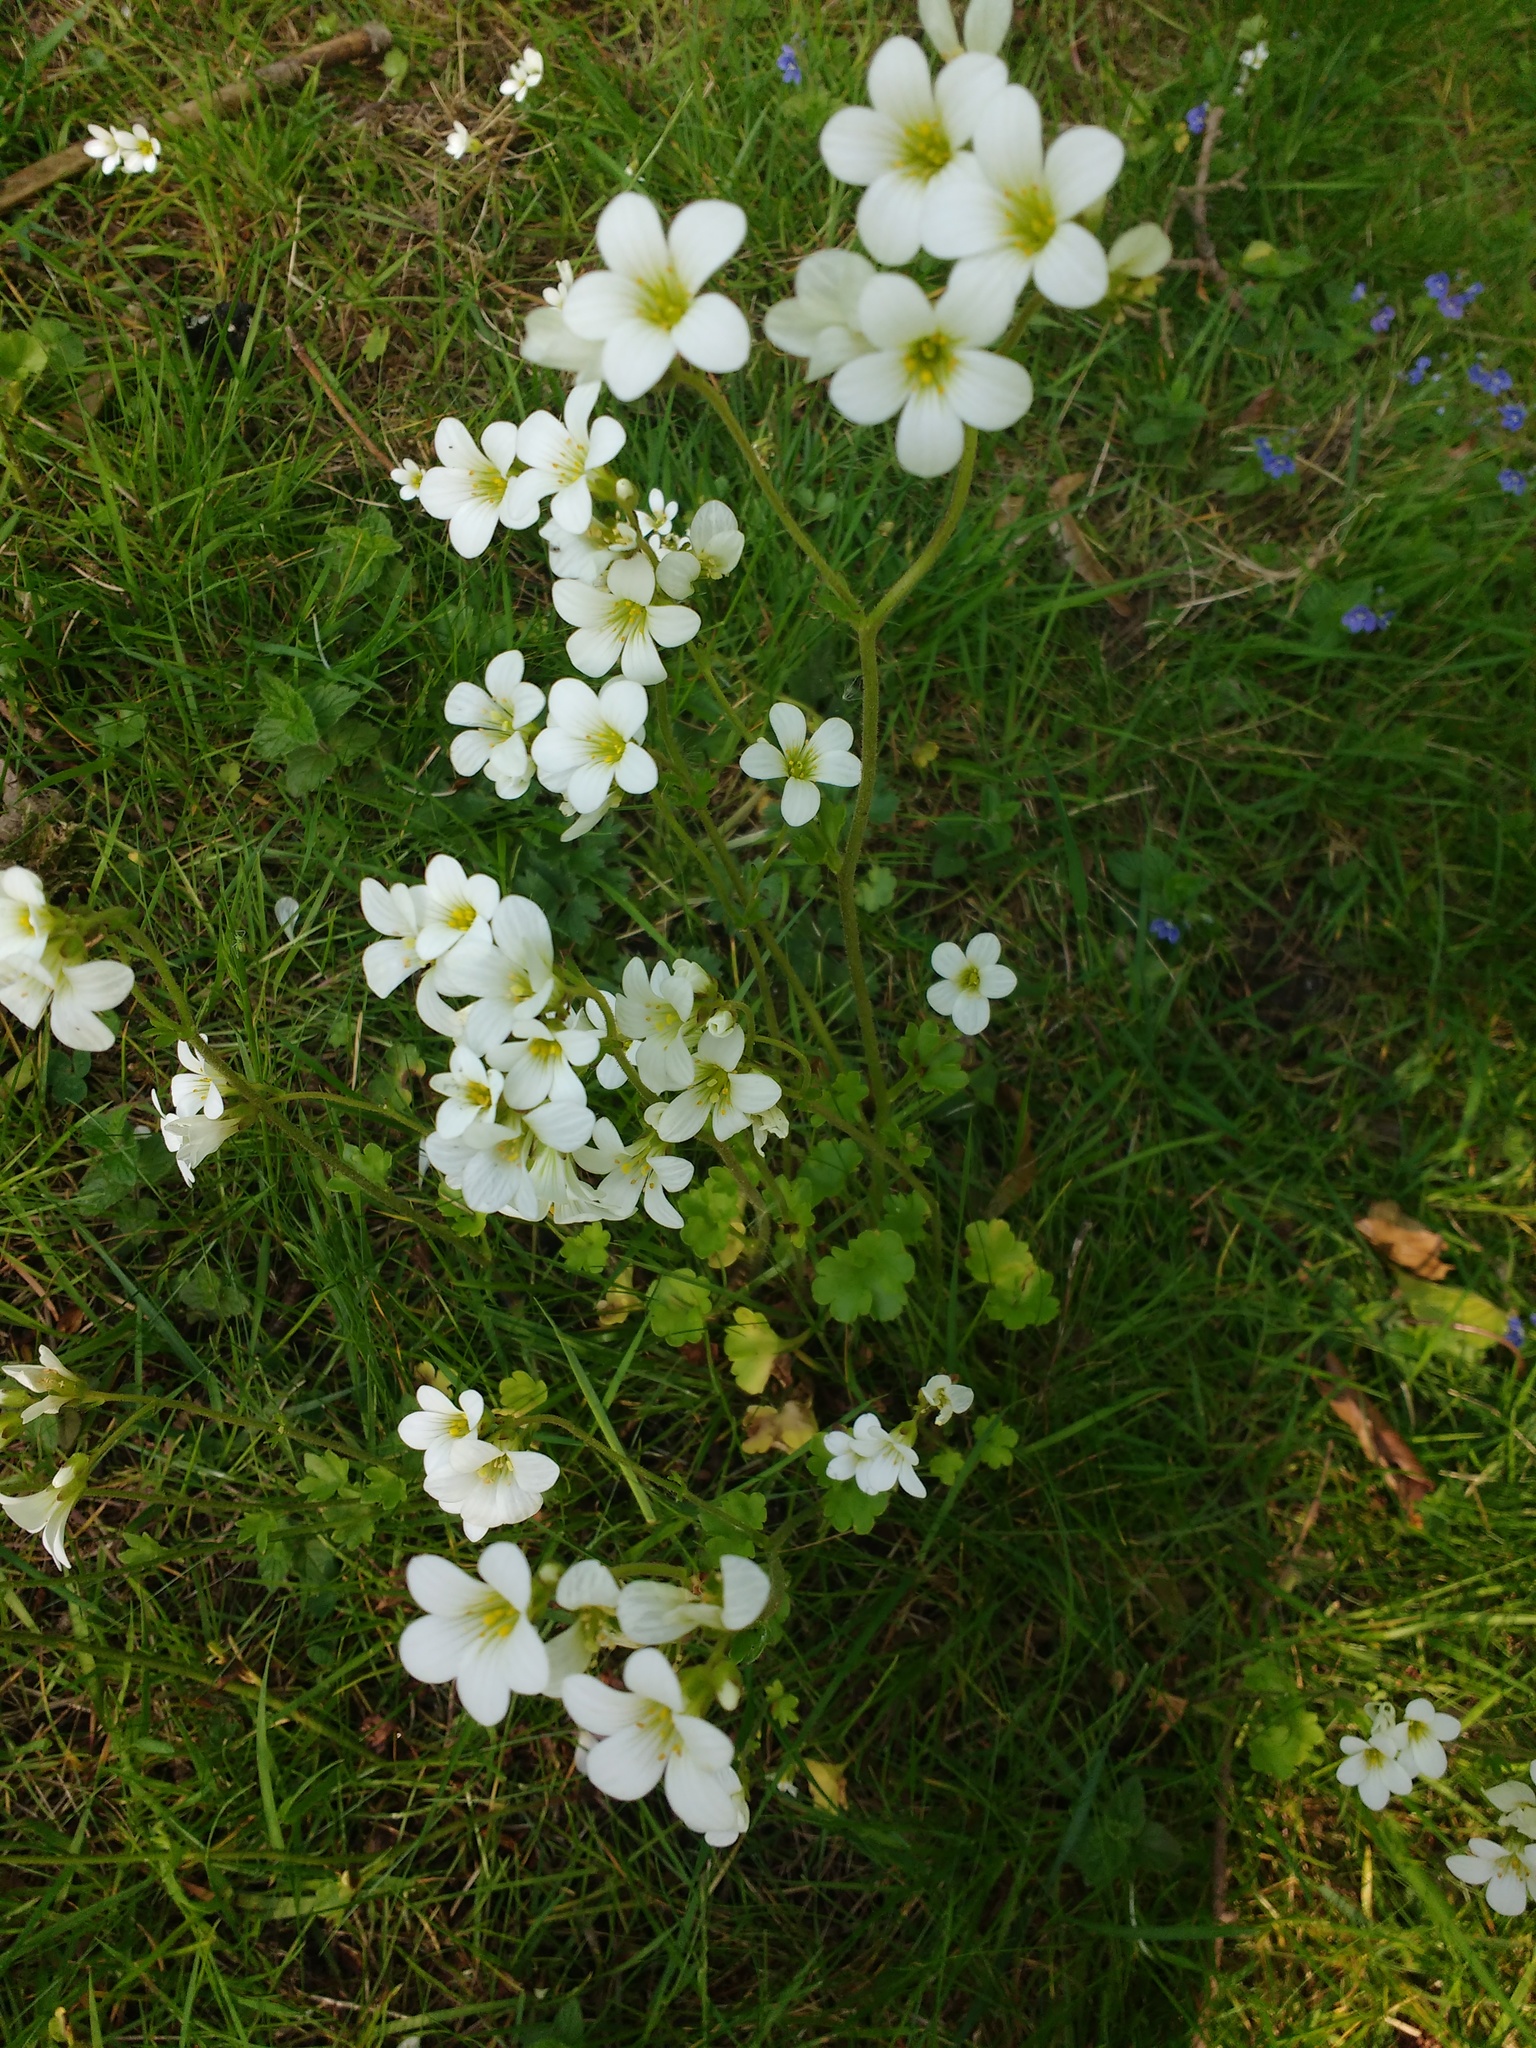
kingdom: Plantae
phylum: Tracheophyta
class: Magnoliopsida
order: Saxifragales
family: Saxifragaceae
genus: Saxifraga
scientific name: Saxifraga granulata
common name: Meadow saxifrage
